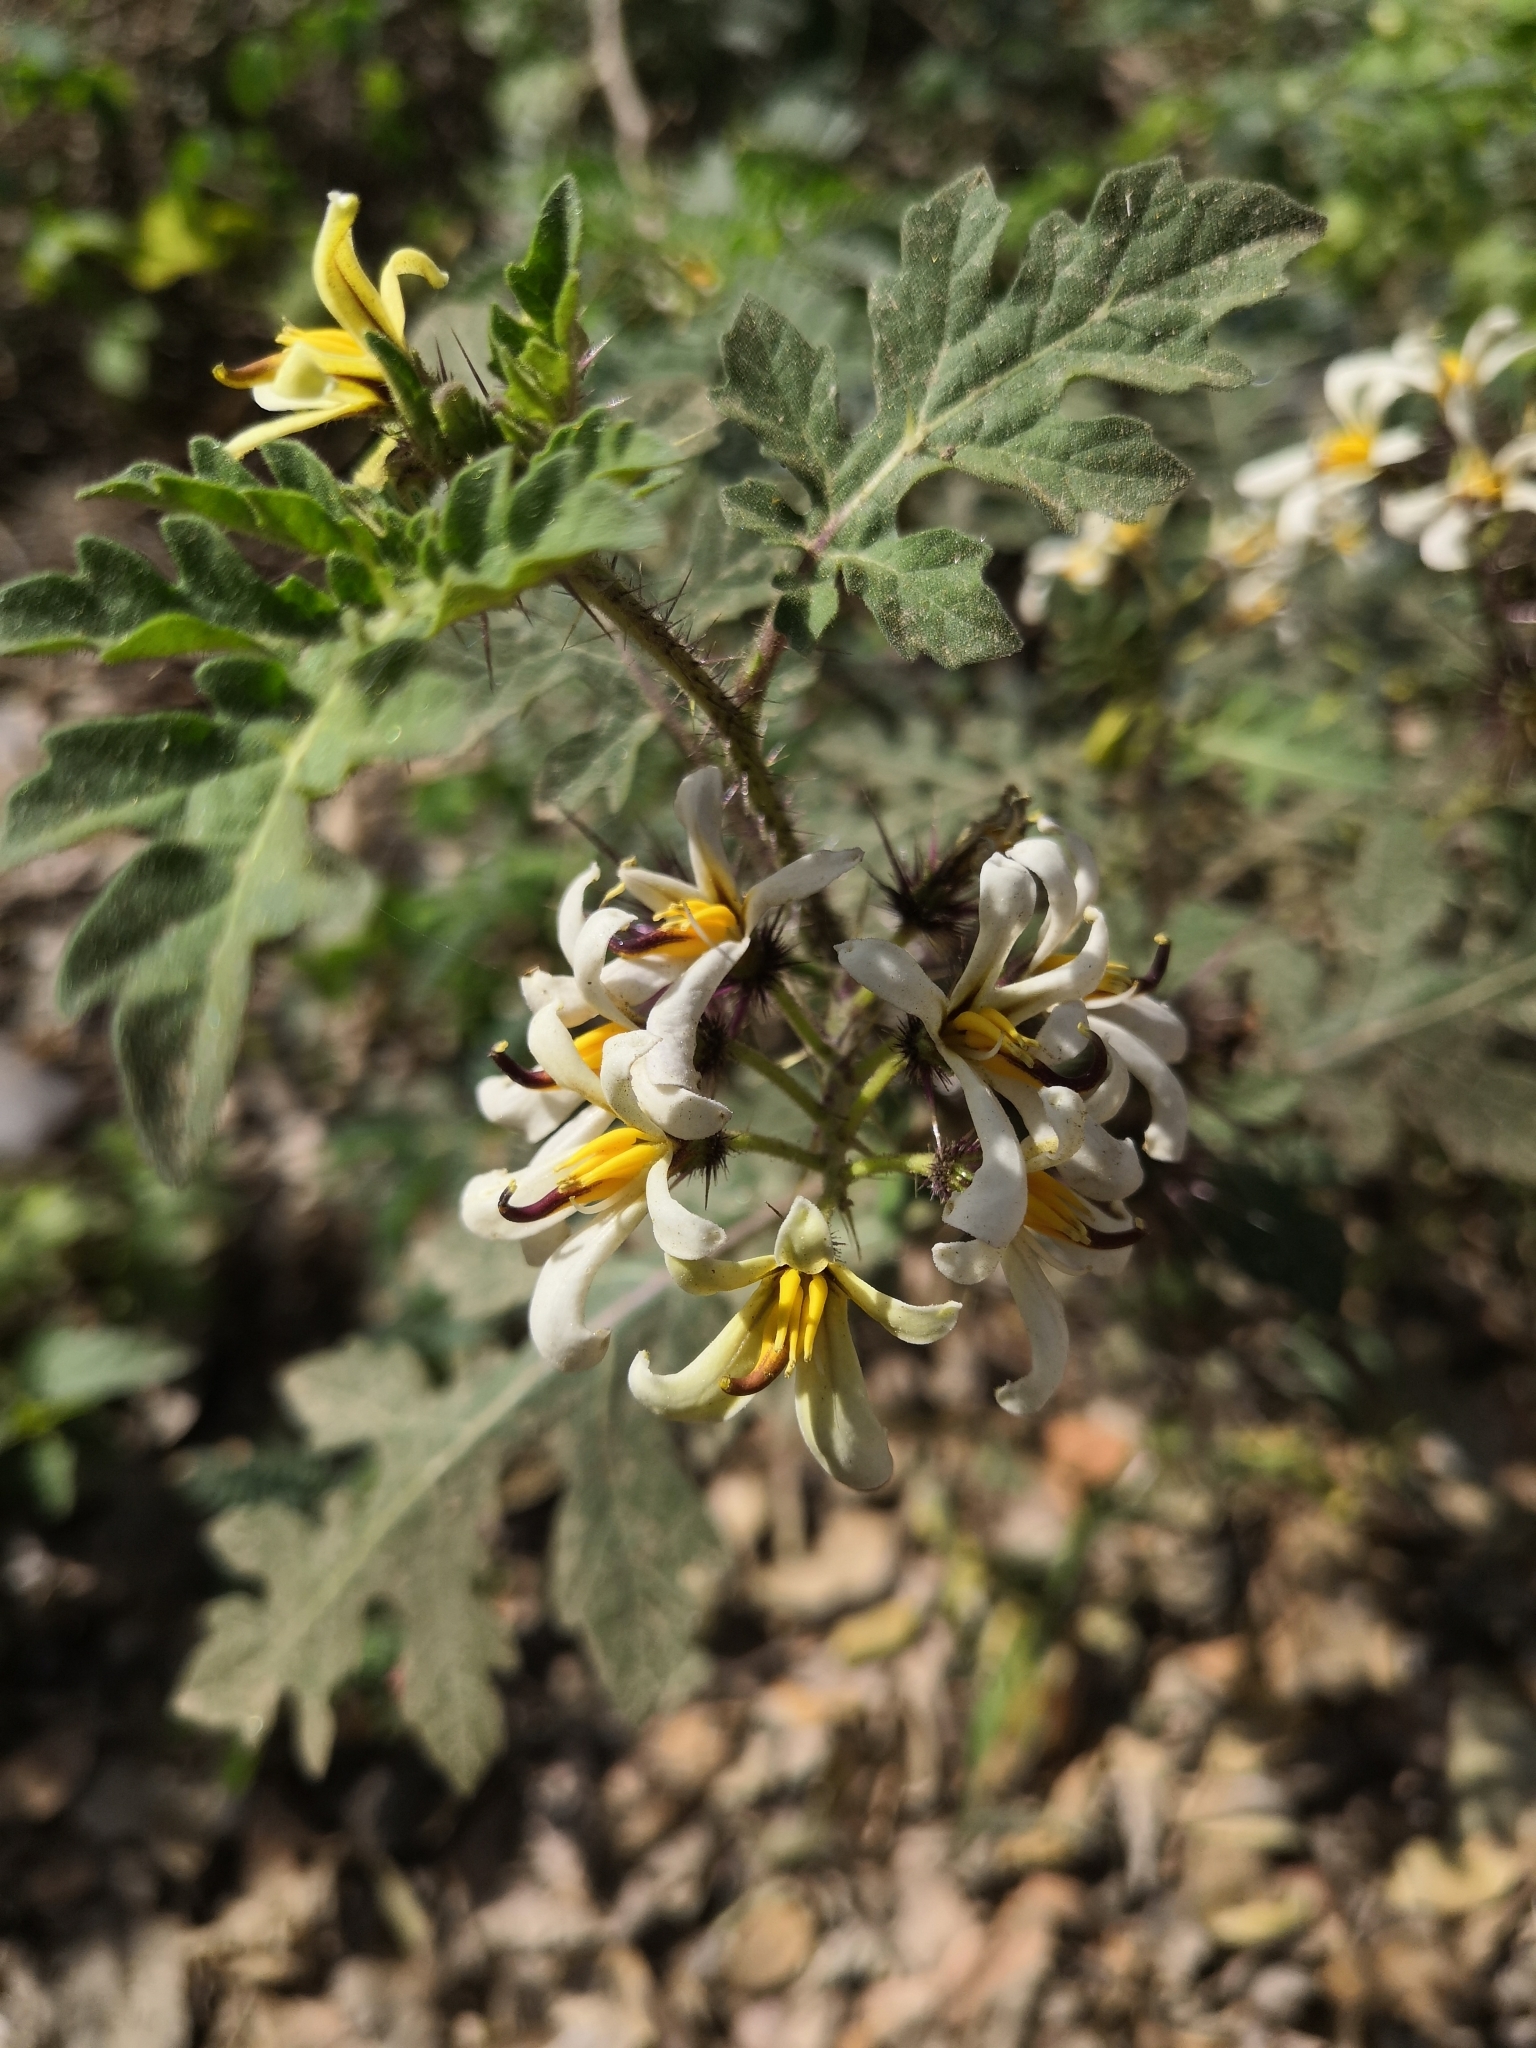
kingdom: Plantae
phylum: Tracheophyta
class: Magnoliopsida
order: Solanales
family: Solanaceae
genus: Solanum
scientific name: Solanum grayi
